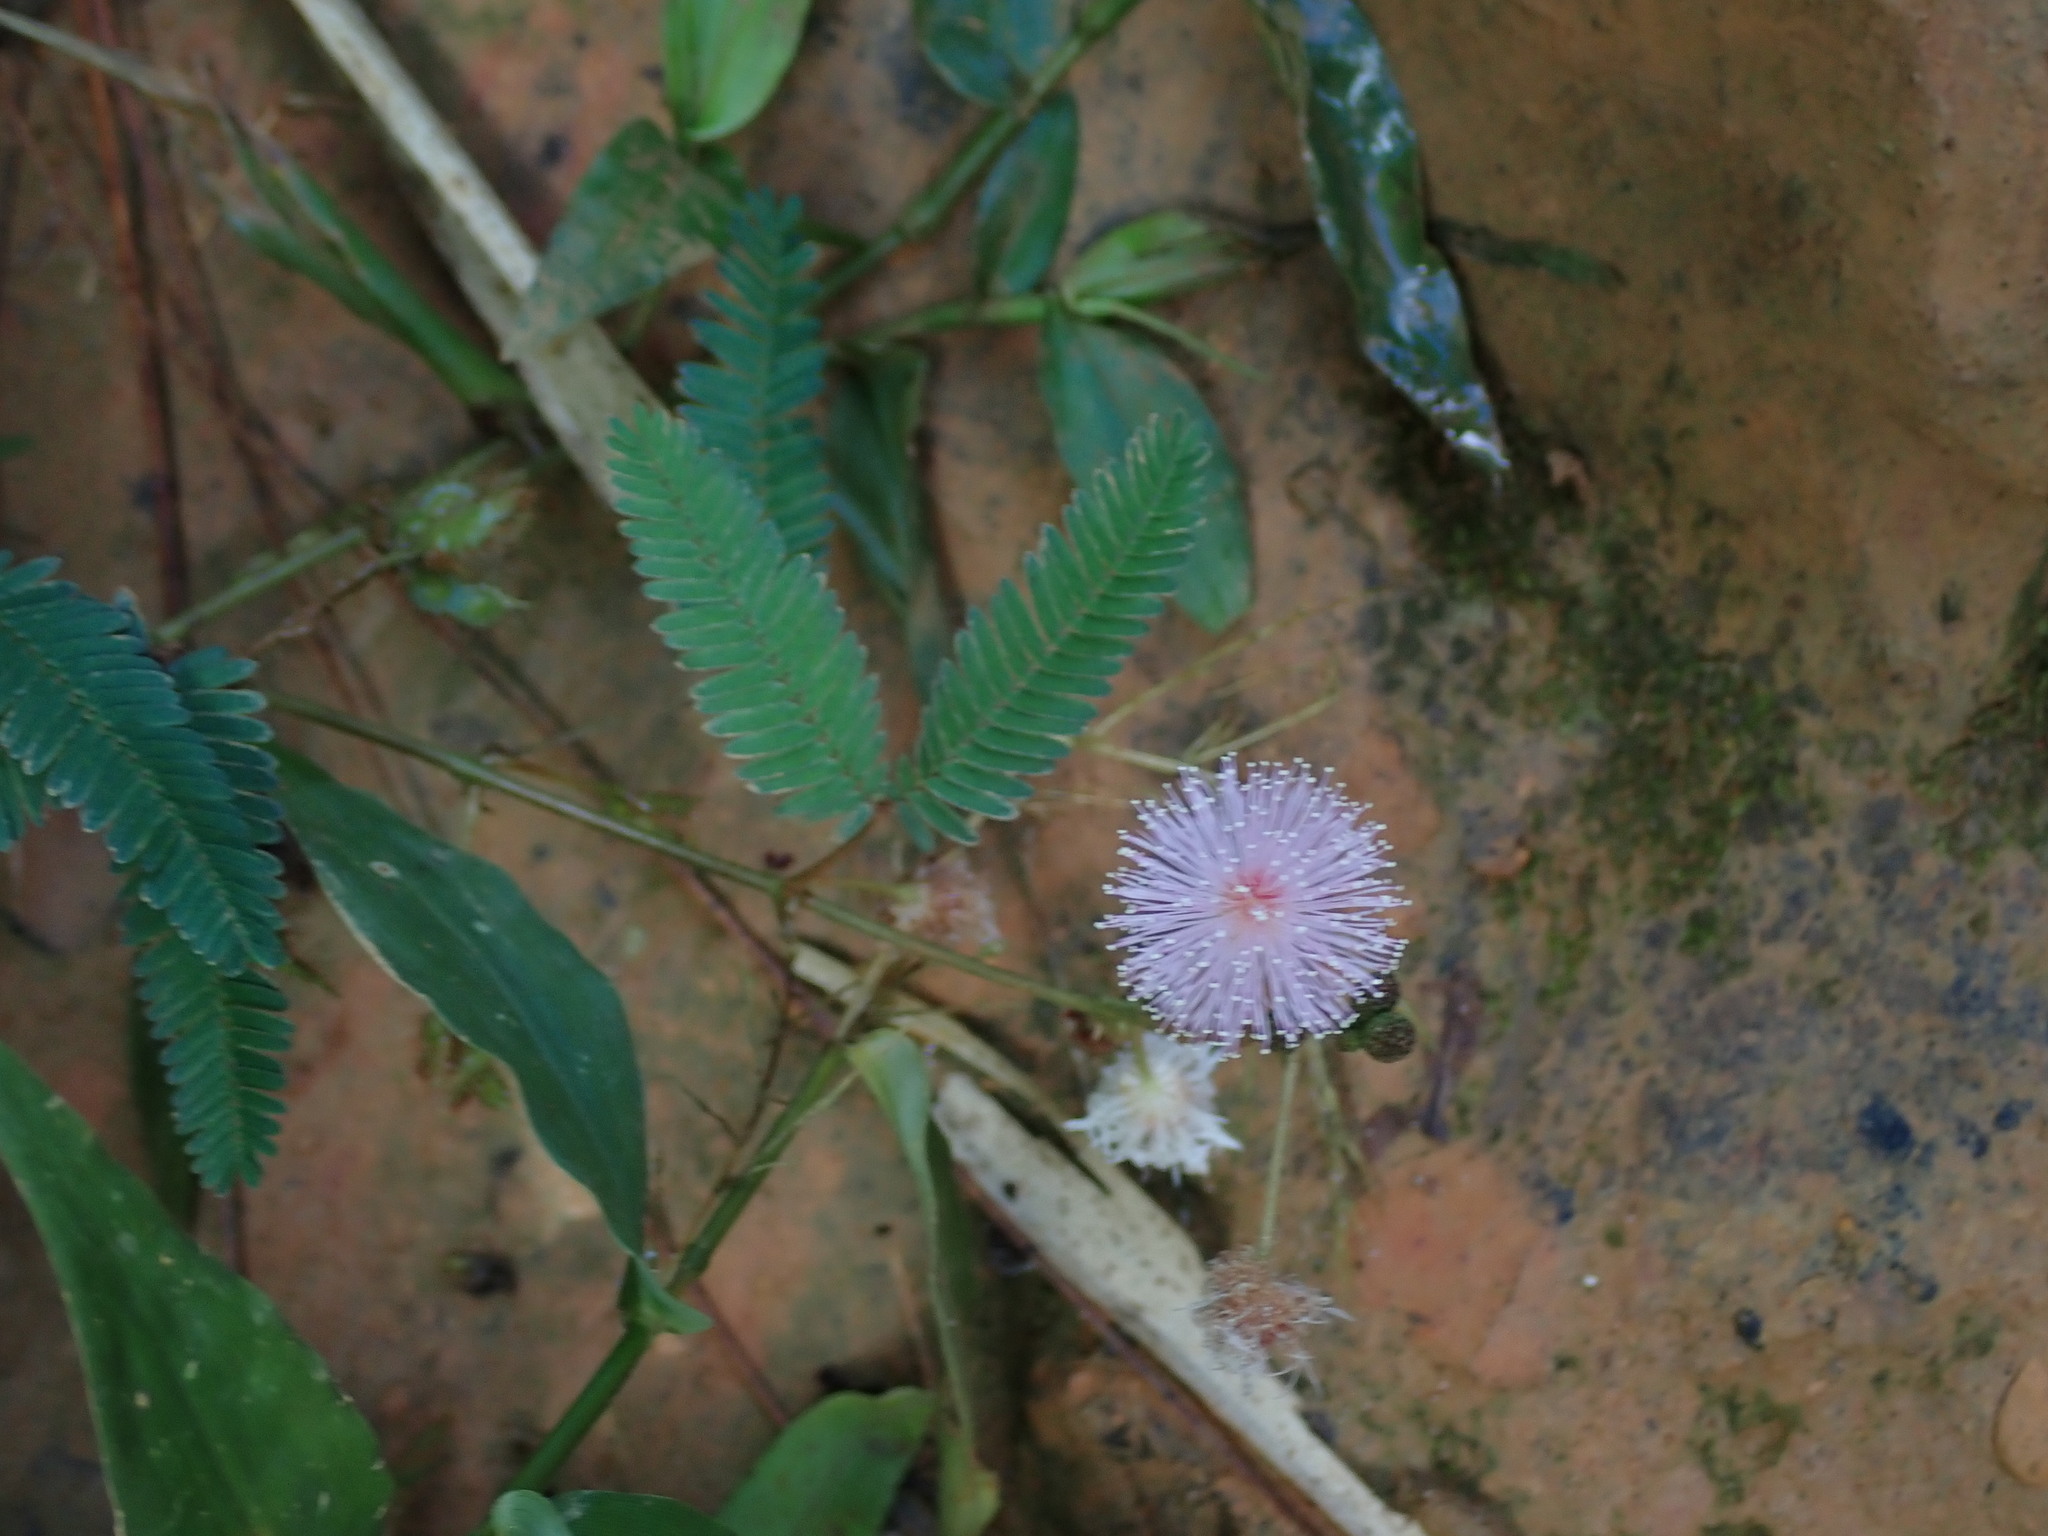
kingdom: Plantae
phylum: Tracheophyta
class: Magnoliopsida
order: Fabales
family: Fabaceae
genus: Mimosa
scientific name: Mimosa pudica
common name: Sensitive plant
